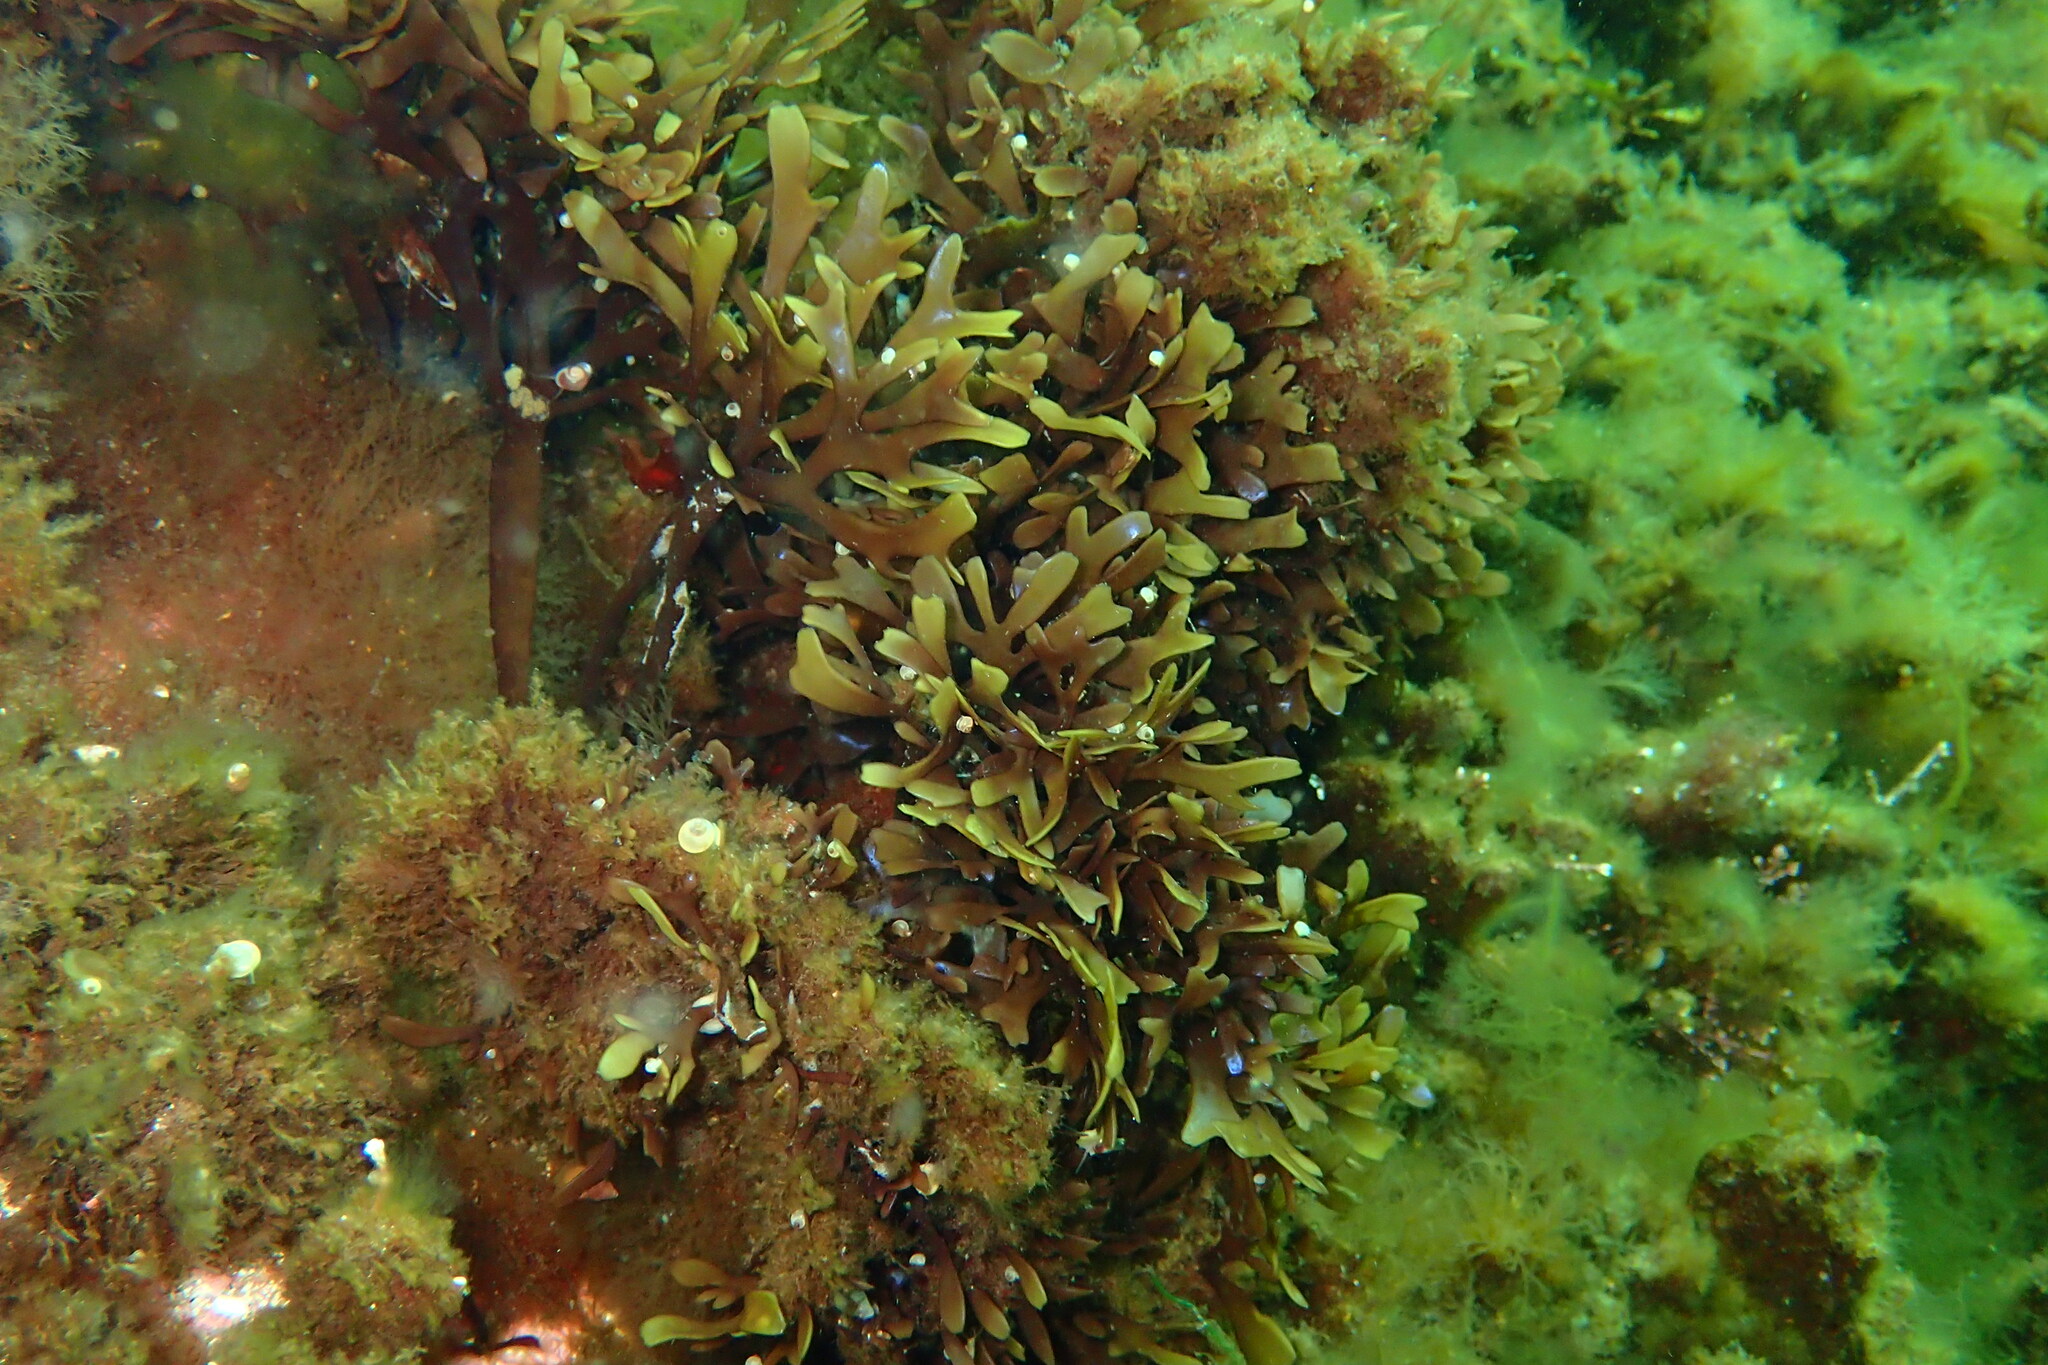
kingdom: Plantae
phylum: Rhodophyta
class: Florideophyceae
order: Gigartinales
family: Gigartinaceae
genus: Chondrus
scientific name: Chondrus crispus
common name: Carrageen
